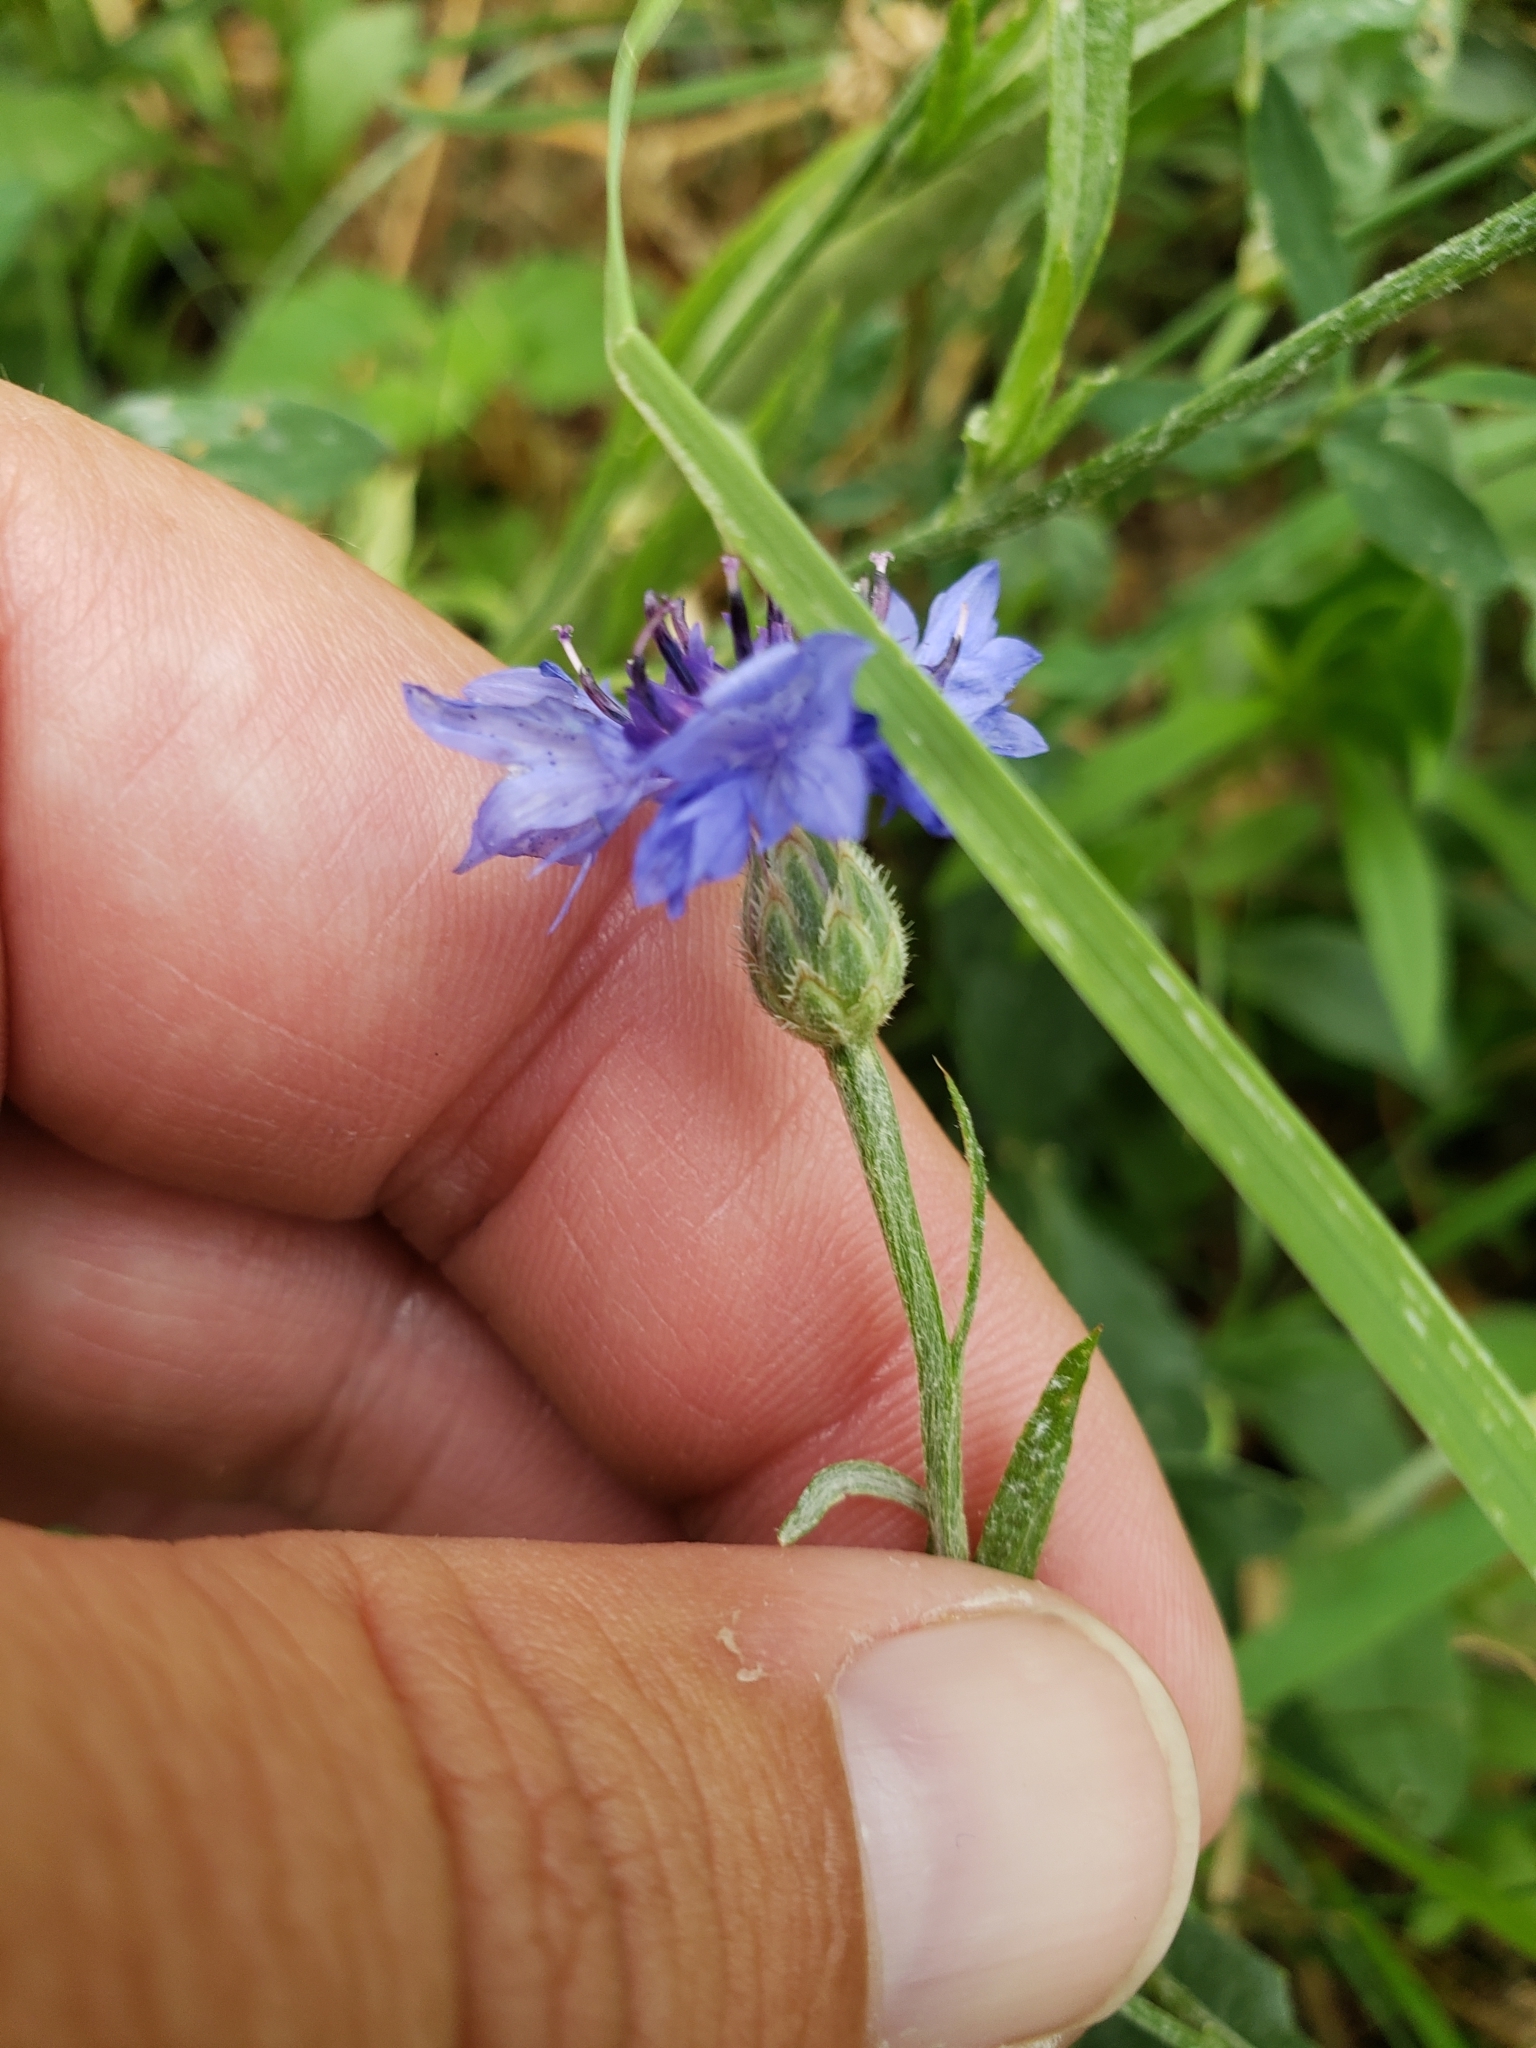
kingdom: Plantae
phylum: Tracheophyta
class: Magnoliopsida
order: Asterales
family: Asteraceae
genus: Centaurea
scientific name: Centaurea cyanus
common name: Cornflower
